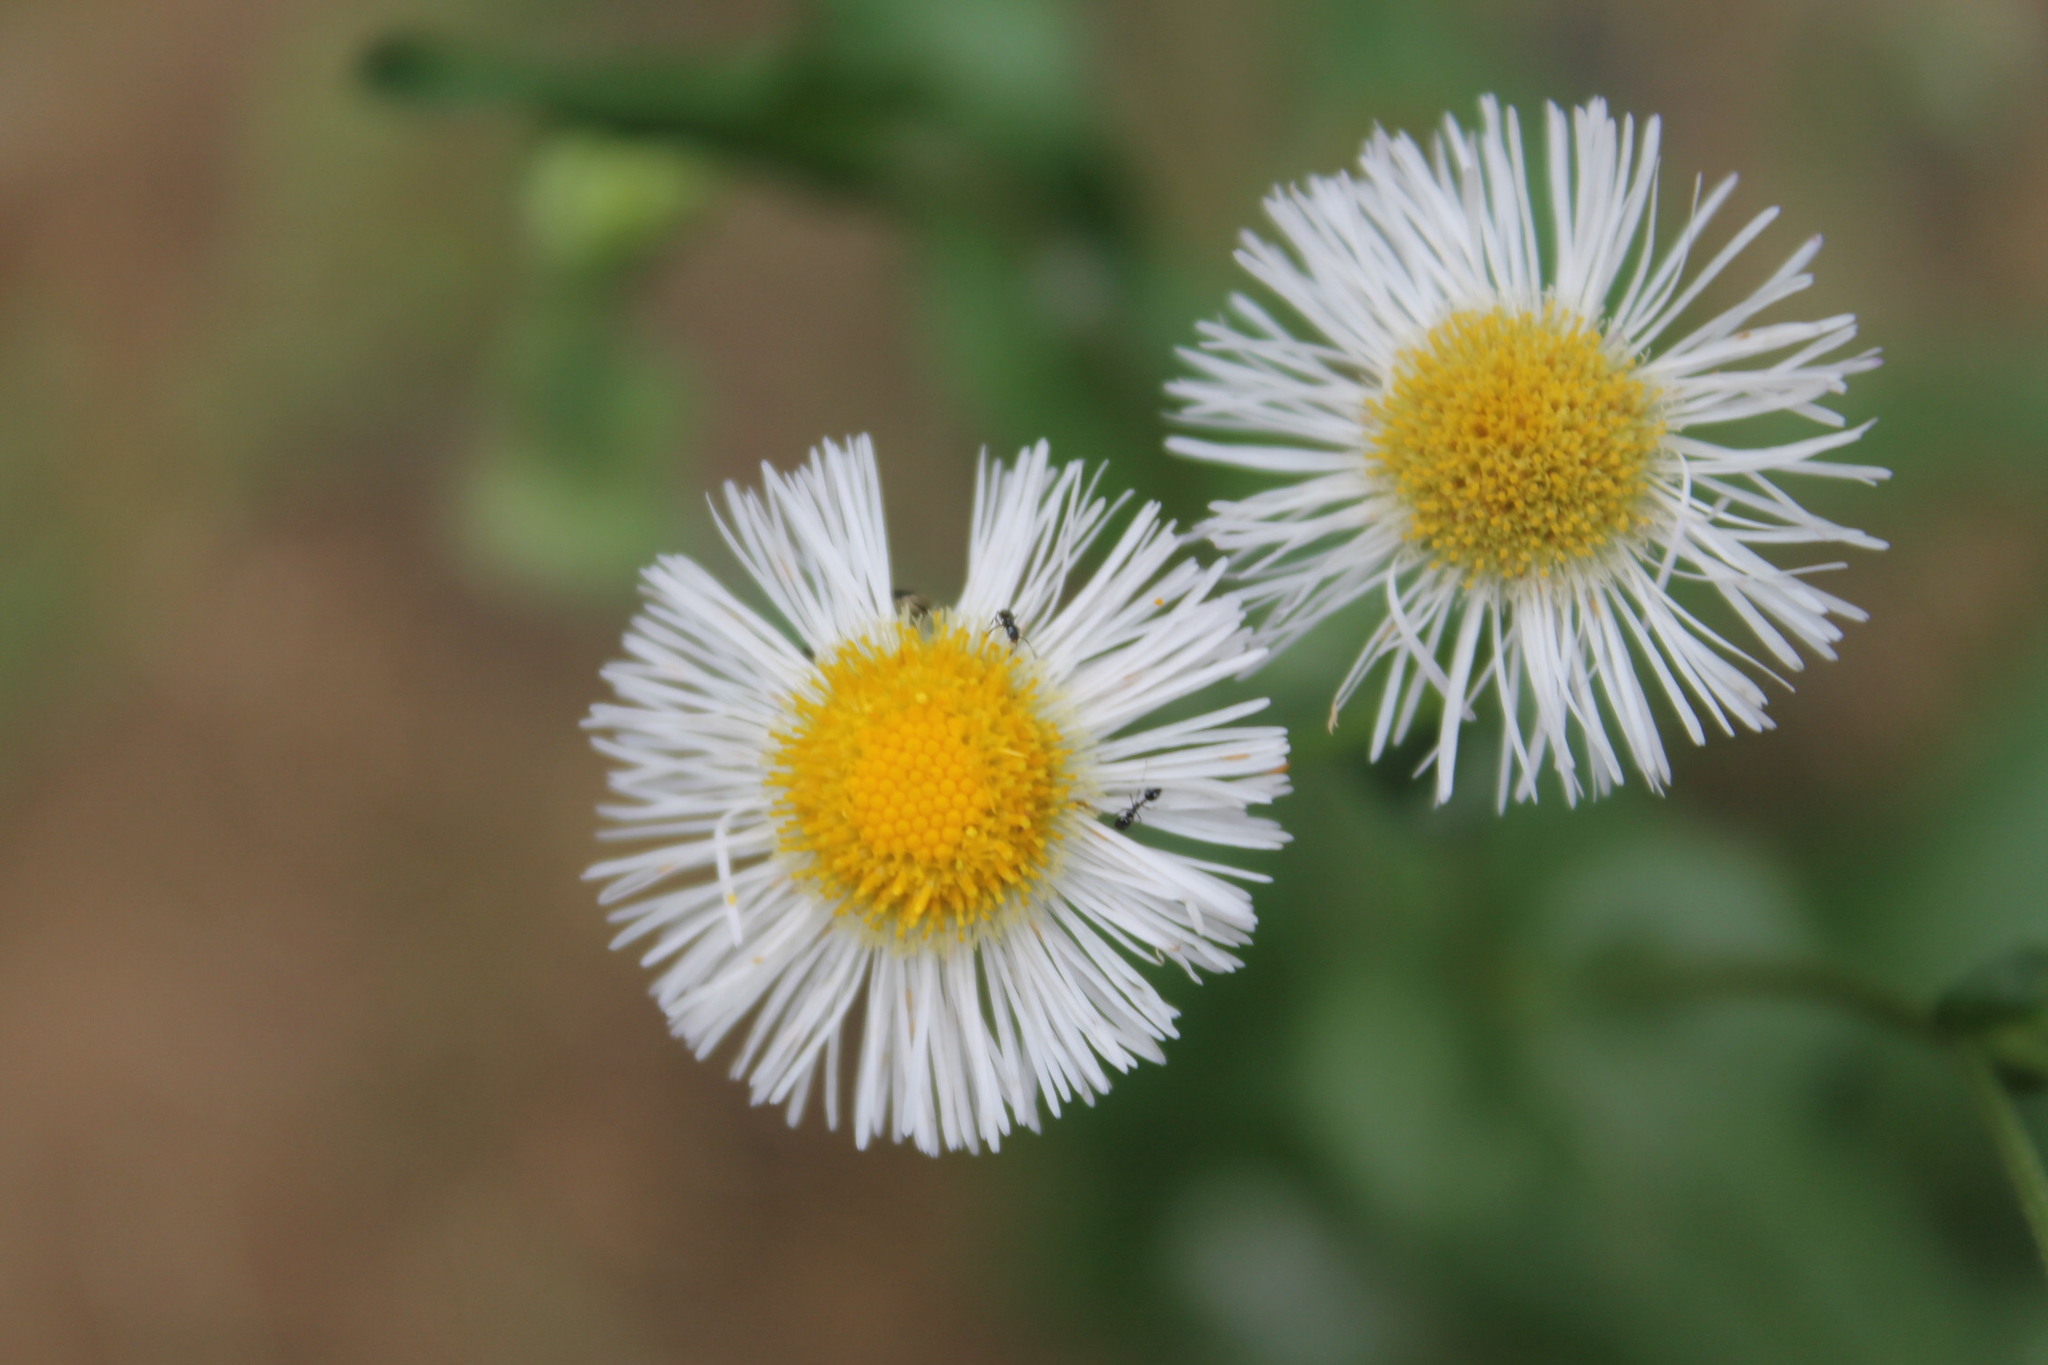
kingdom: Plantae
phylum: Tracheophyta
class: Magnoliopsida
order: Asterales
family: Asteraceae
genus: Erigeron
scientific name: Erigeron philadelphicus
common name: Robin's-plantain
